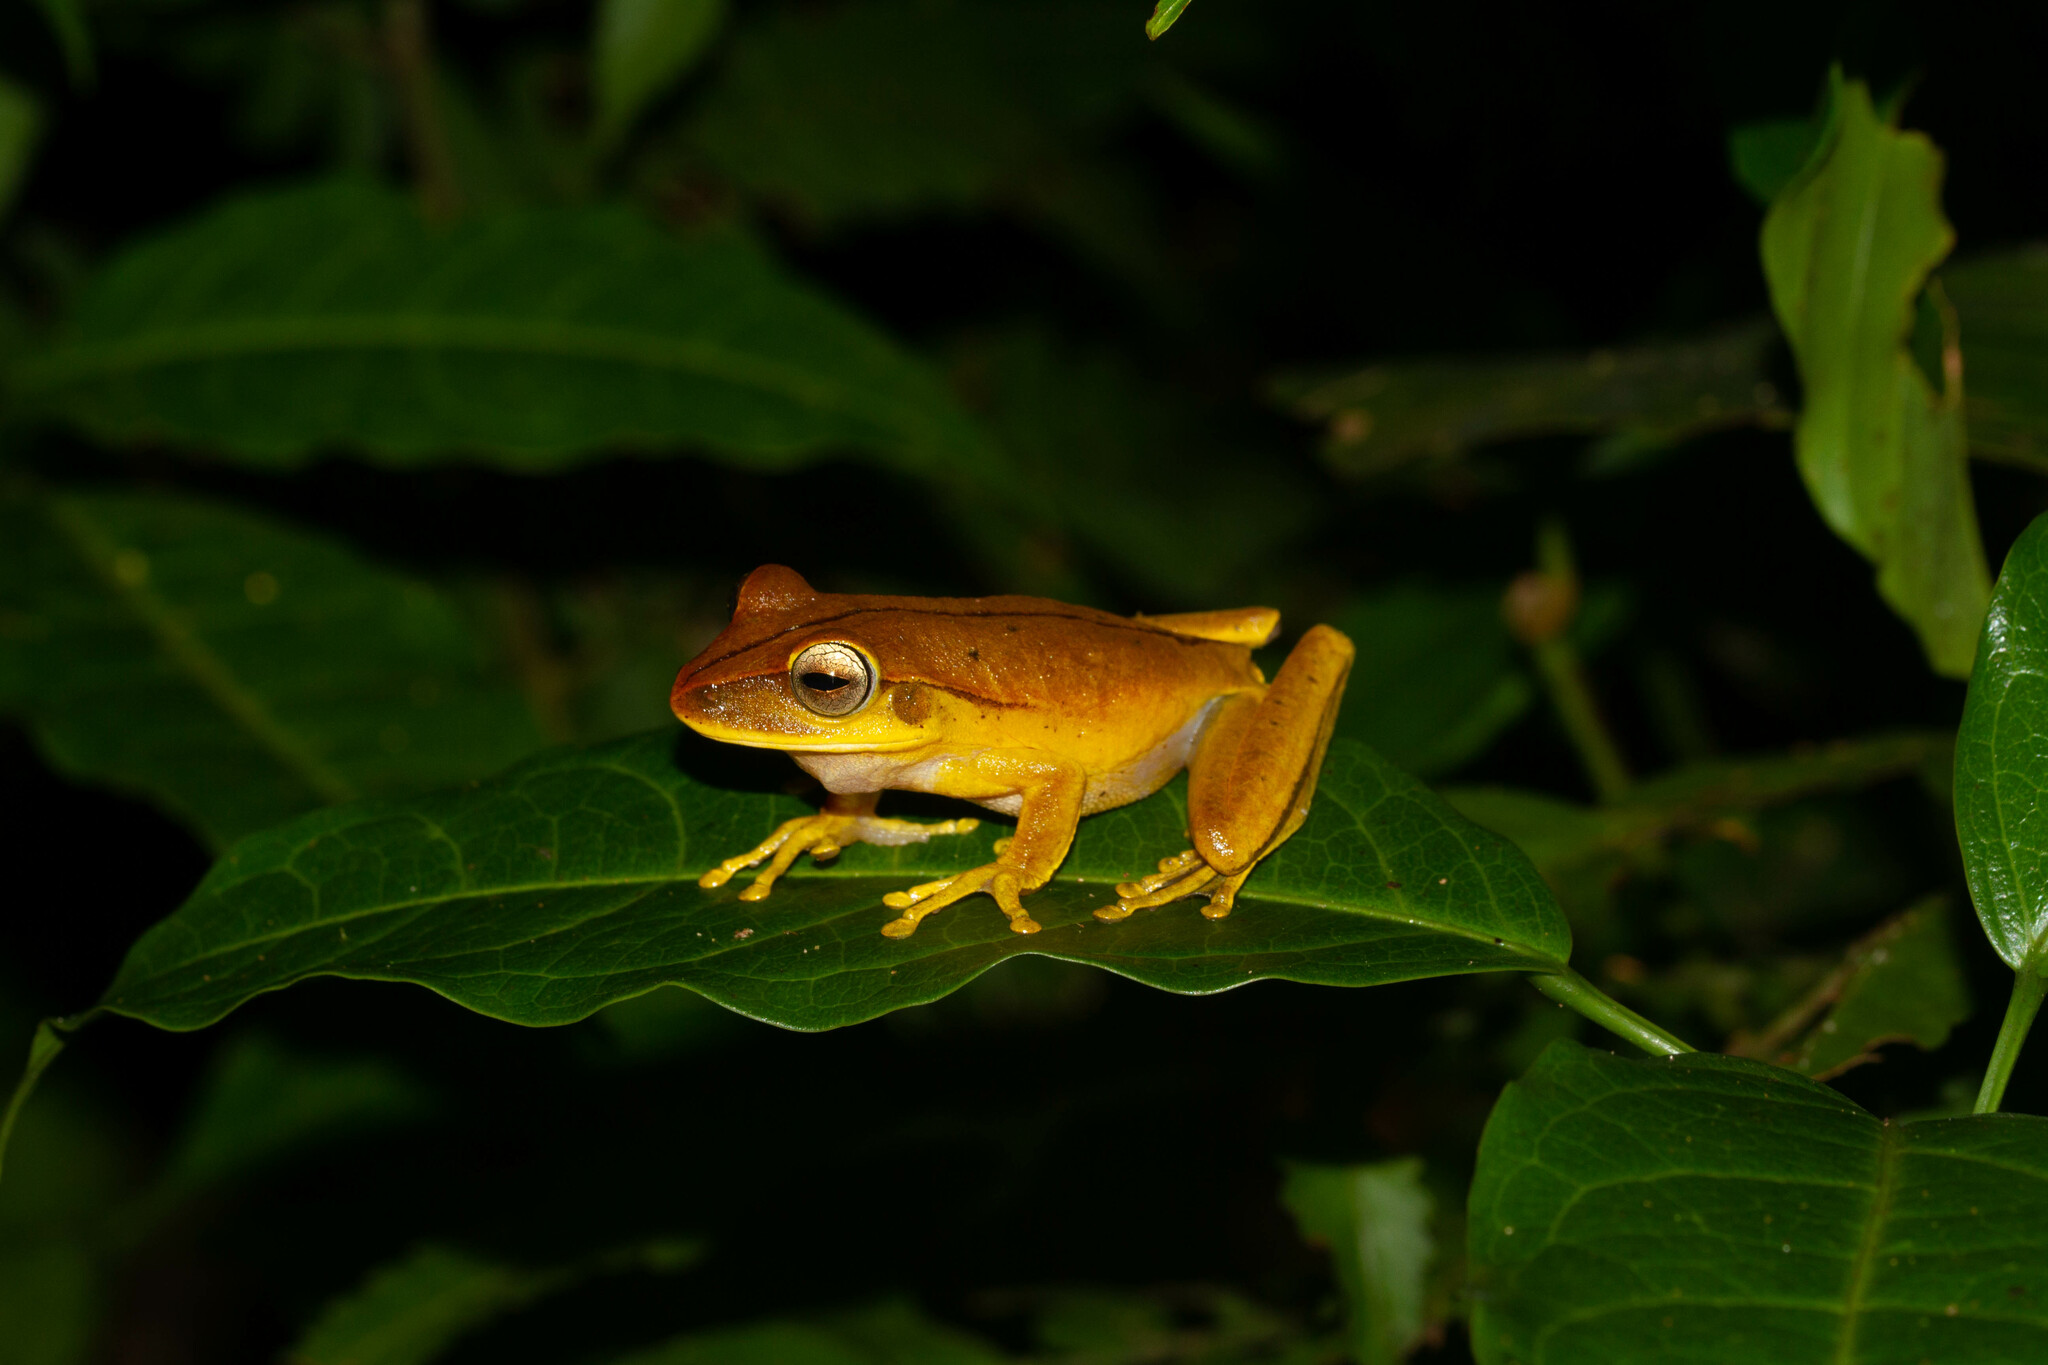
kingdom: Animalia
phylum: Chordata
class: Amphibia
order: Anura
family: Hylidae
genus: Boana
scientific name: Boana multifasciata
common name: Many-banded treefrog
